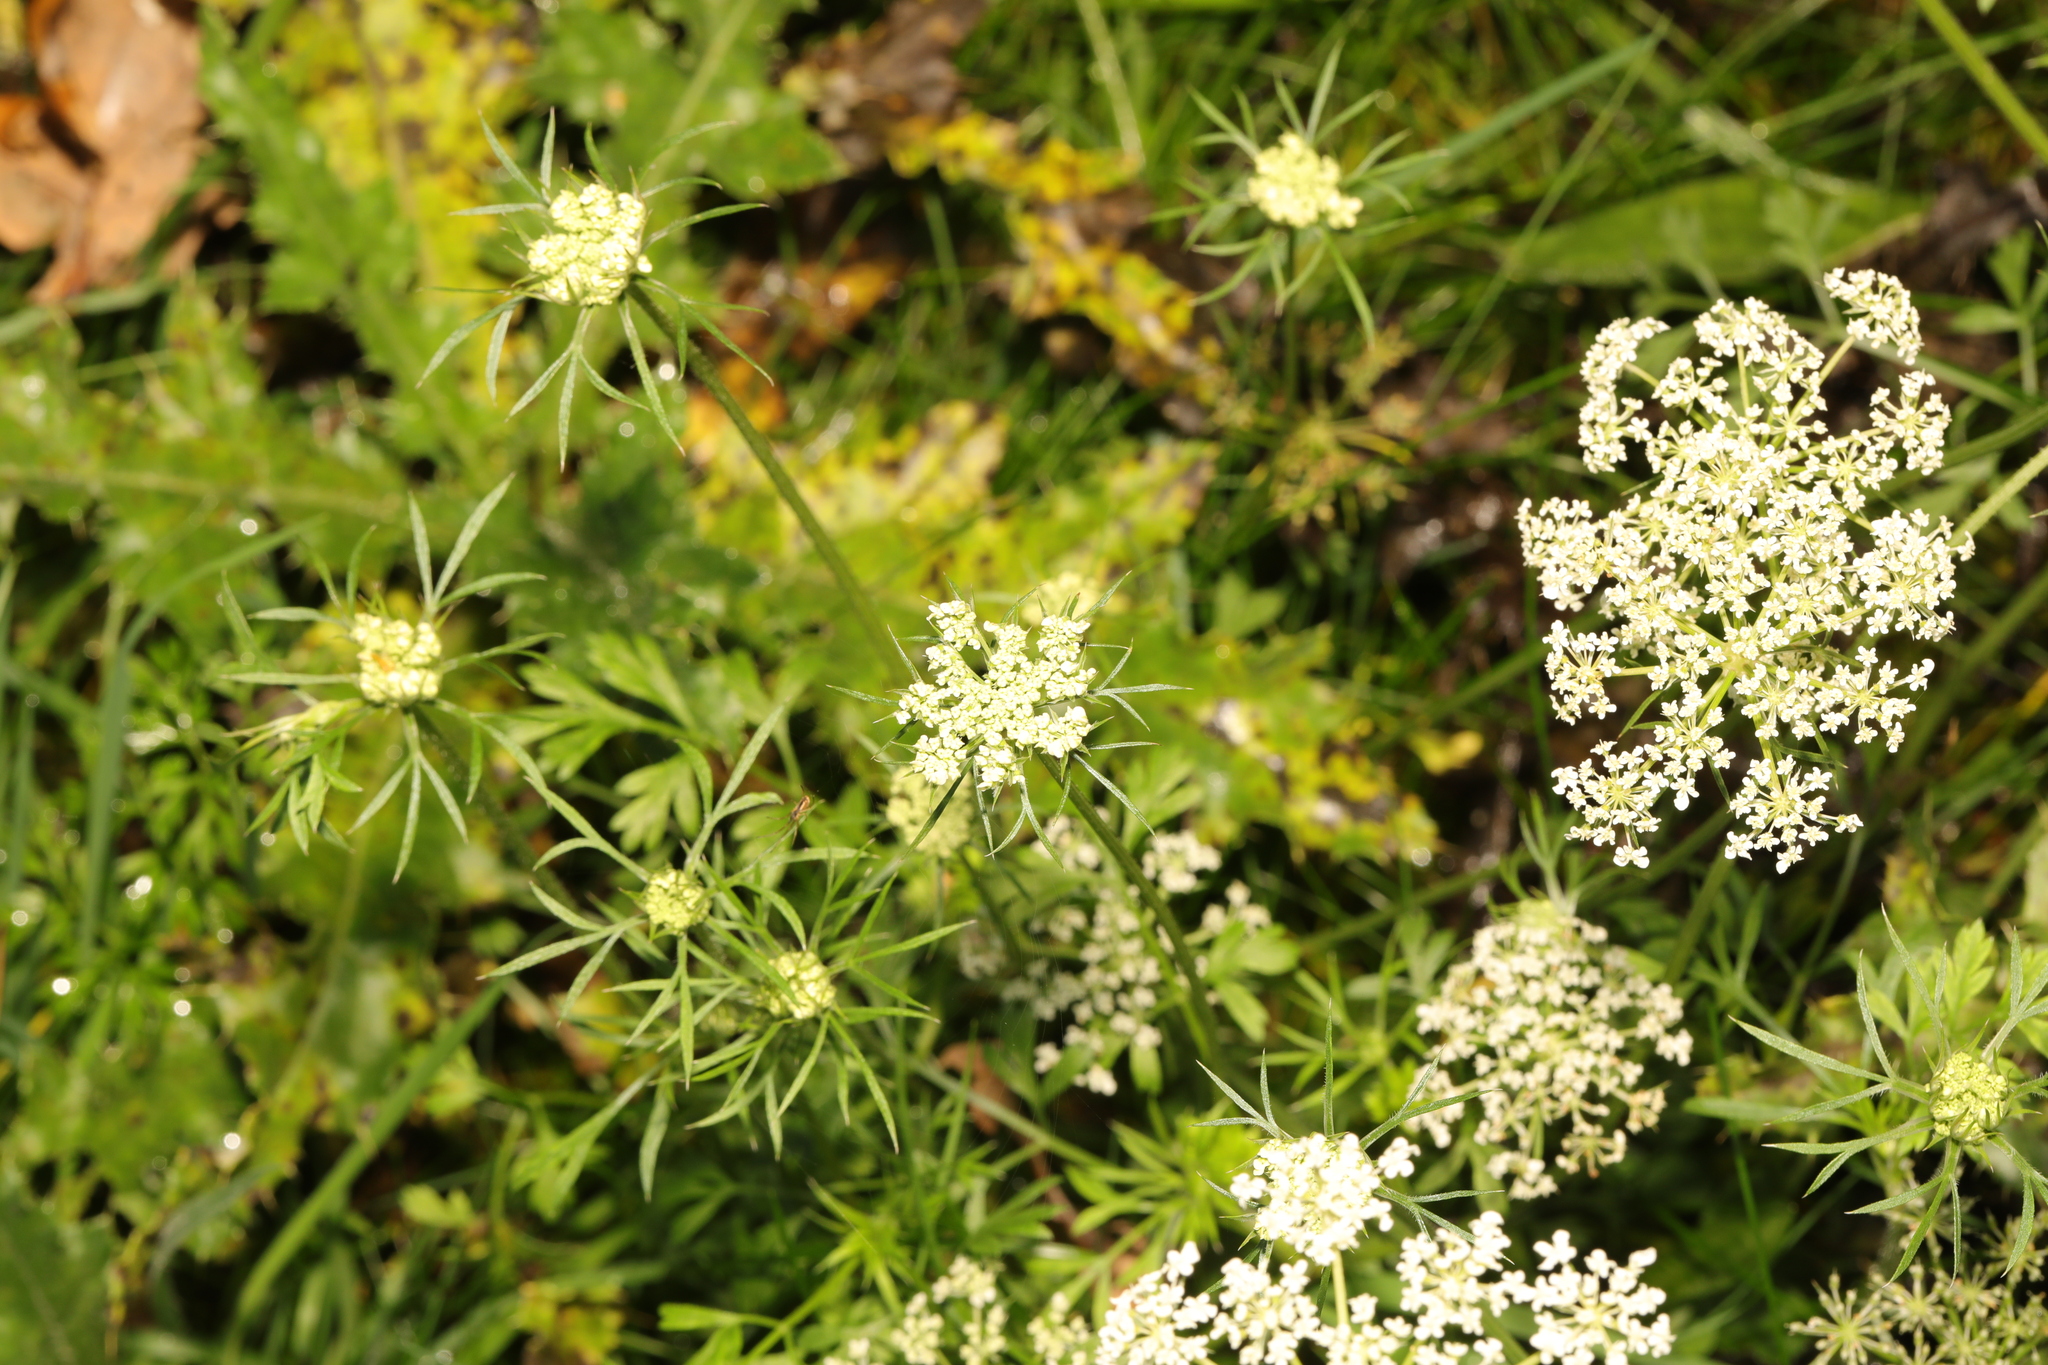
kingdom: Plantae
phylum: Tracheophyta
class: Magnoliopsida
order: Apiales
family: Apiaceae
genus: Daucus
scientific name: Daucus carota
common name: Wild carrot
